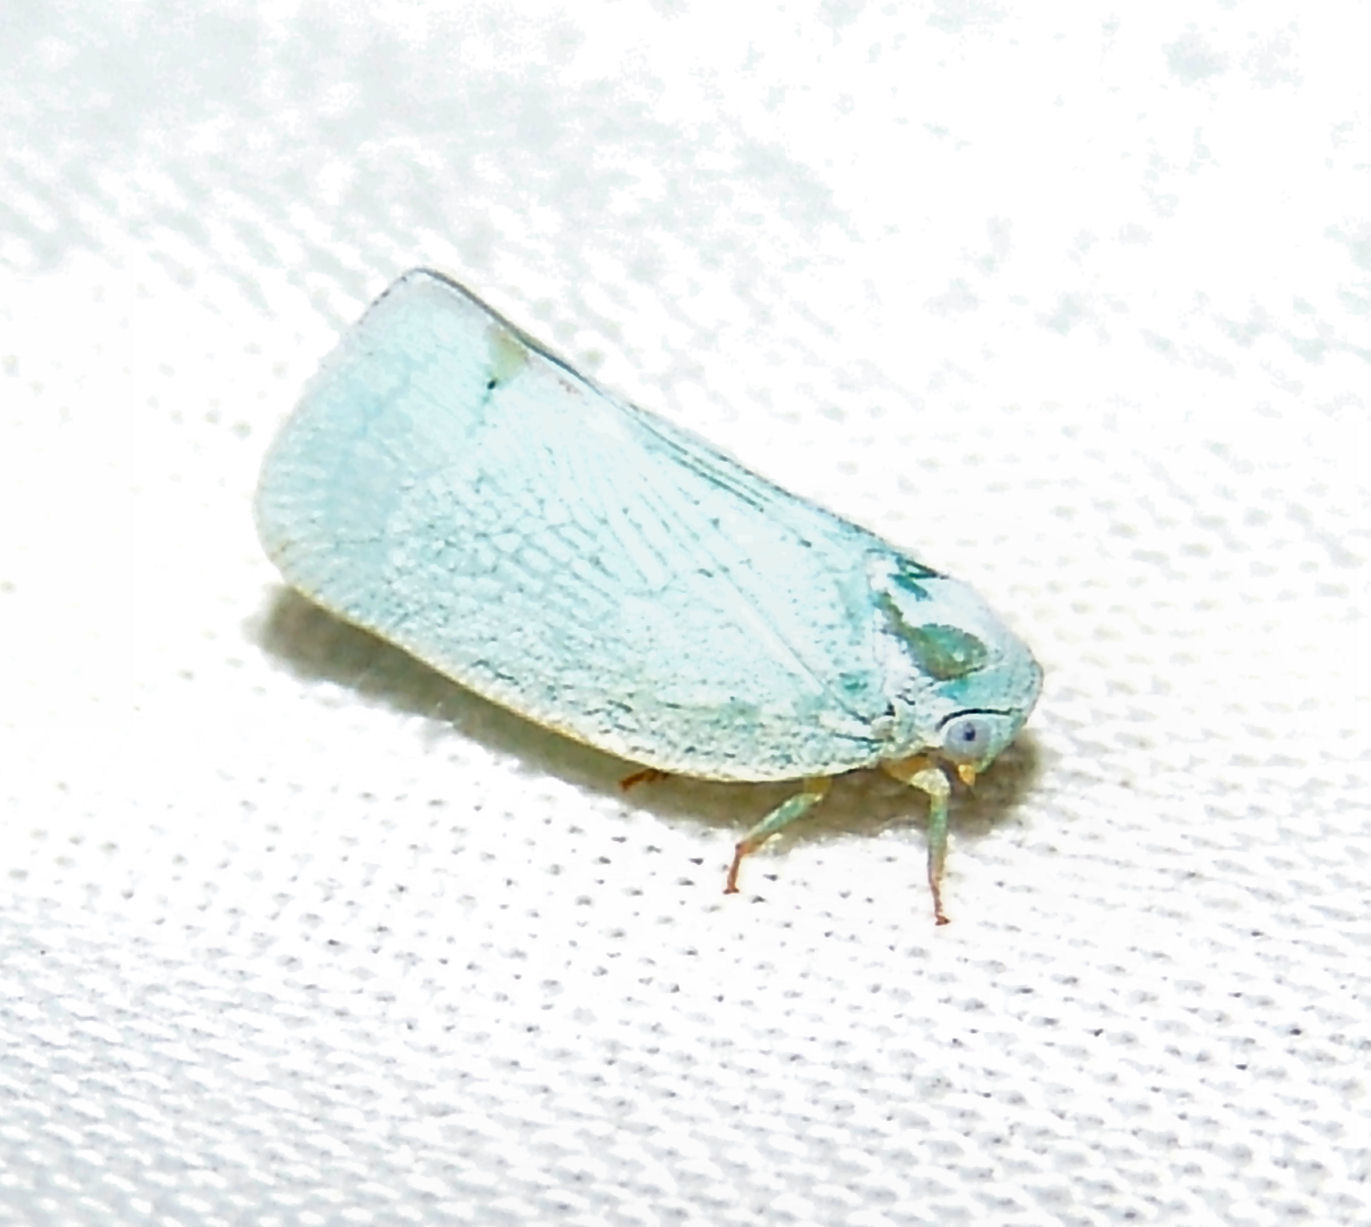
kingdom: Animalia
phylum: Arthropoda
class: Insecta
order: Hemiptera
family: Flatidae
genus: Flatormenis
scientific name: Flatormenis proxima
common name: Northern flatid planthopper
